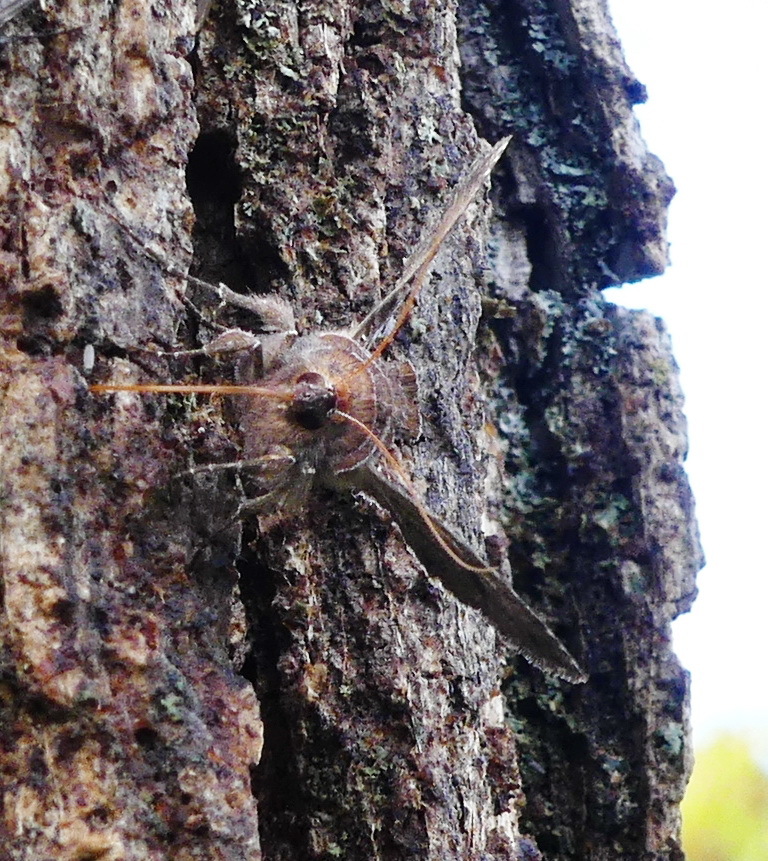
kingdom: Animalia
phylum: Arthropoda
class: Insecta
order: Lepidoptera
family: Noctuidae
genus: Autographa
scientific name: Autographa precationis
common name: Common looper moth
